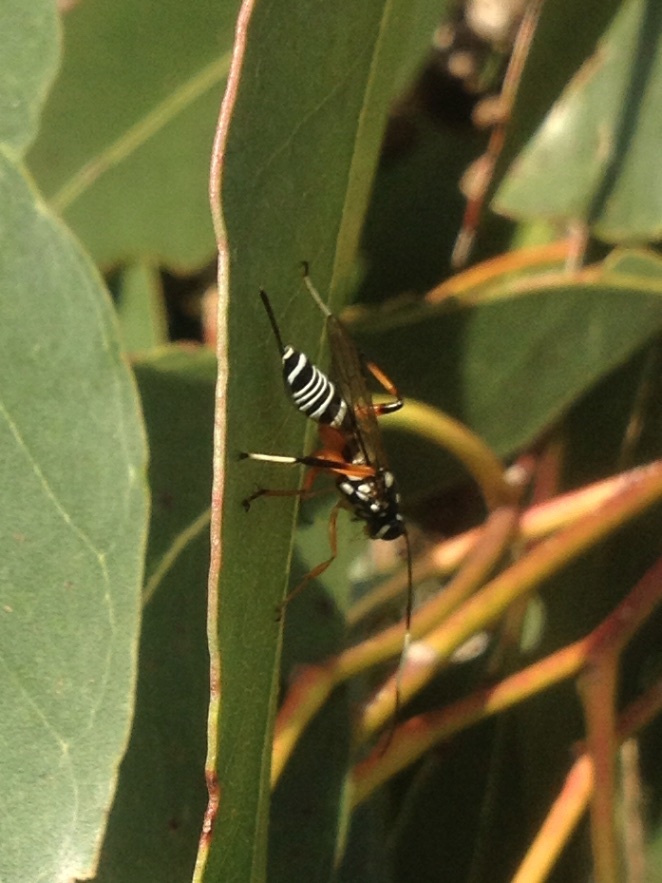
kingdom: Animalia
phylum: Arthropoda
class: Insecta
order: Hymenoptera
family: Ichneumonidae
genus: Xanthocryptus
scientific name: Xanthocryptus novozealandicus
